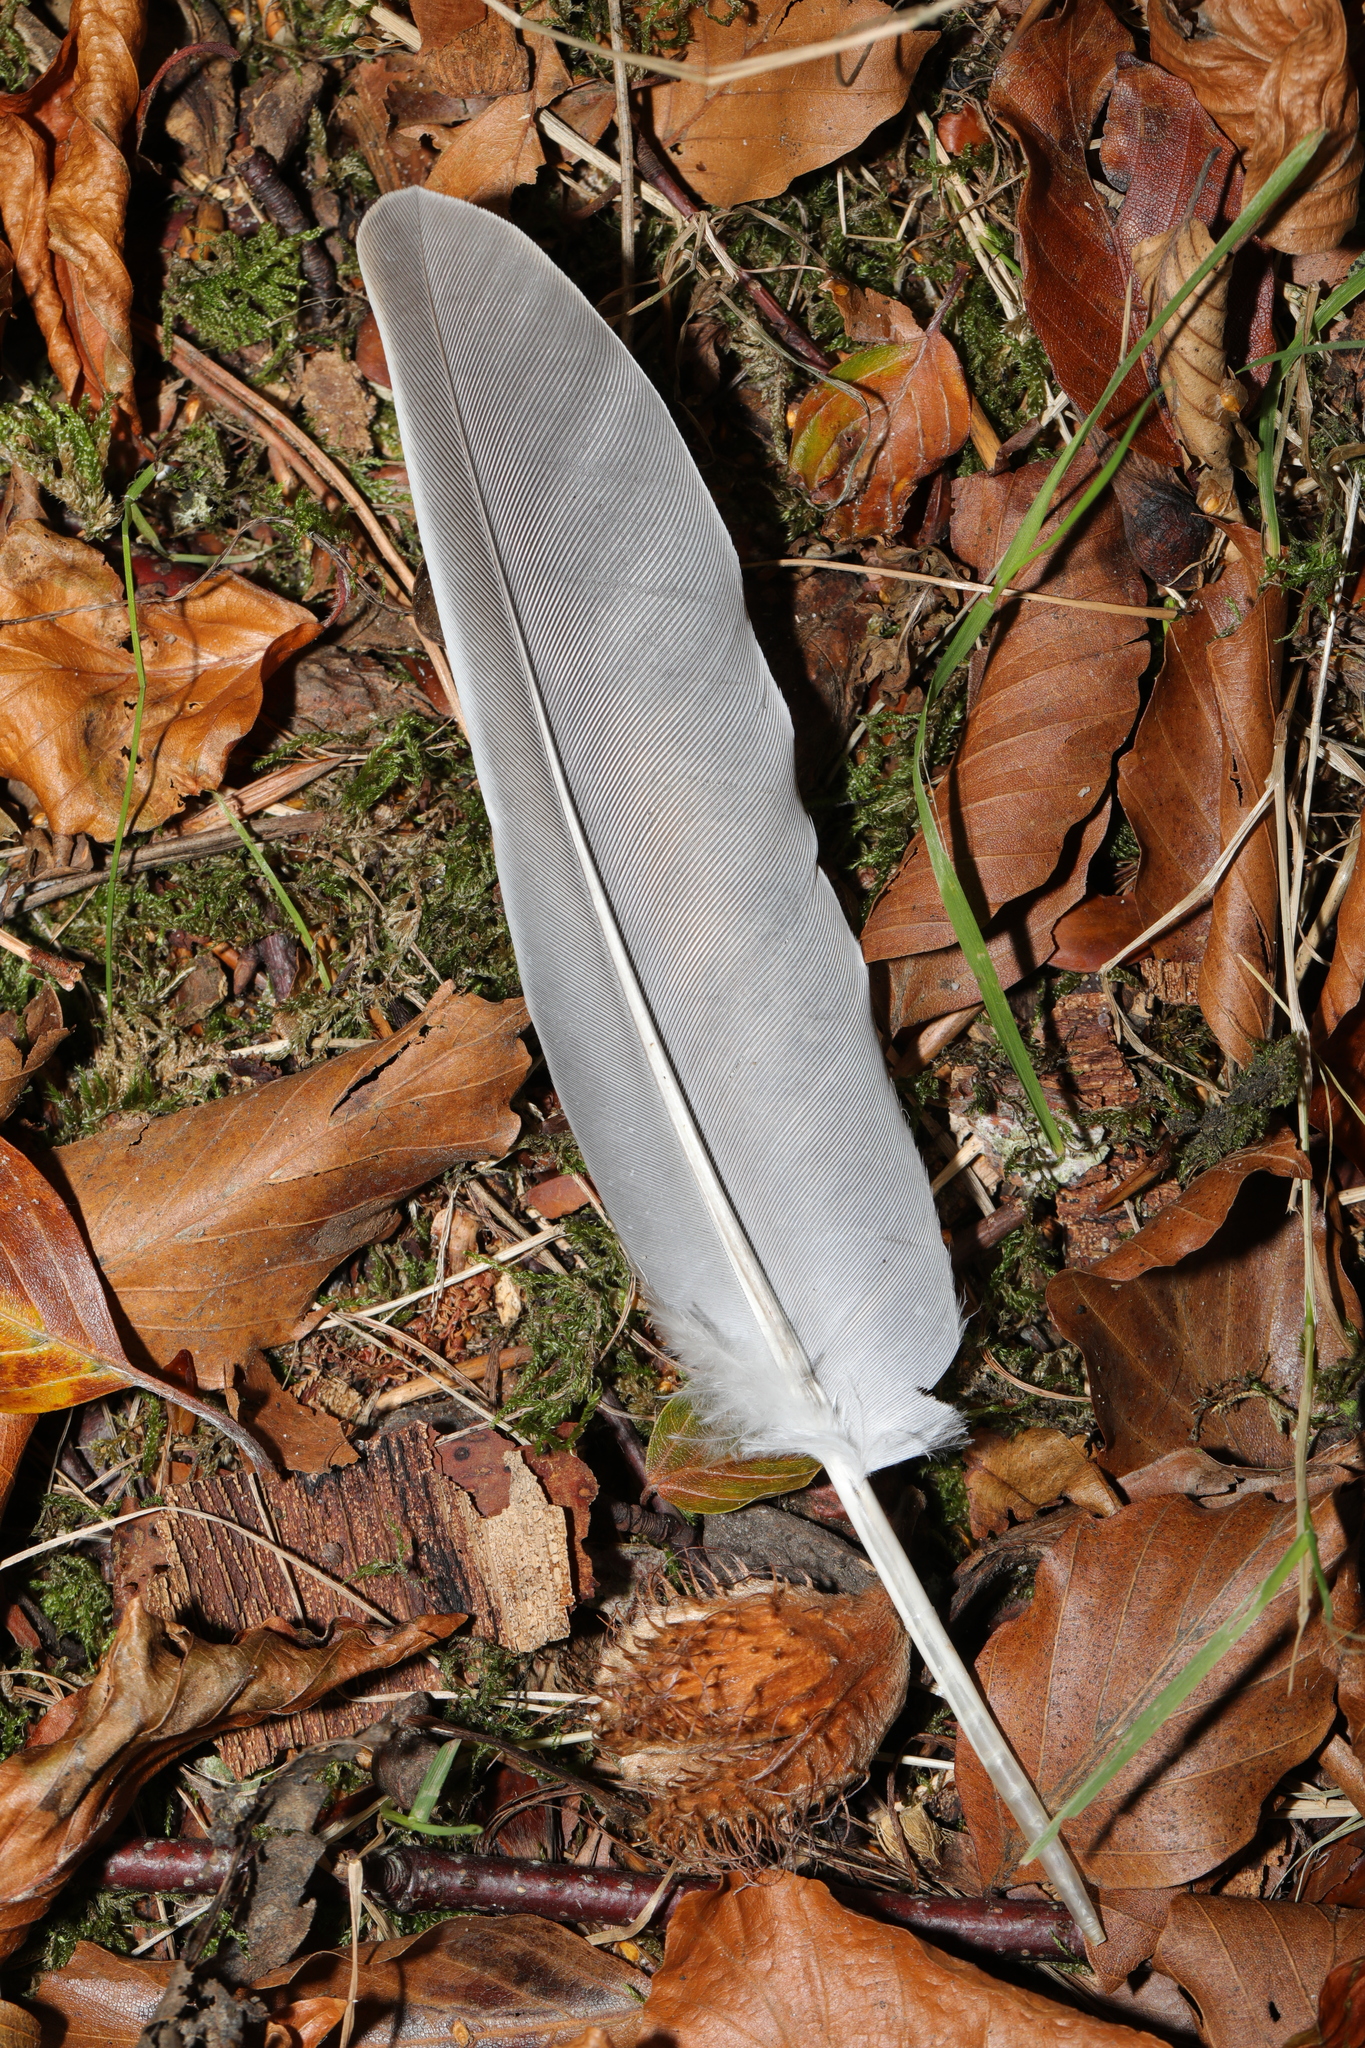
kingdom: Animalia
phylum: Chordata
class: Aves
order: Columbiformes
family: Columbidae
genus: Columba
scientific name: Columba palumbus
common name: Common wood pigeon
